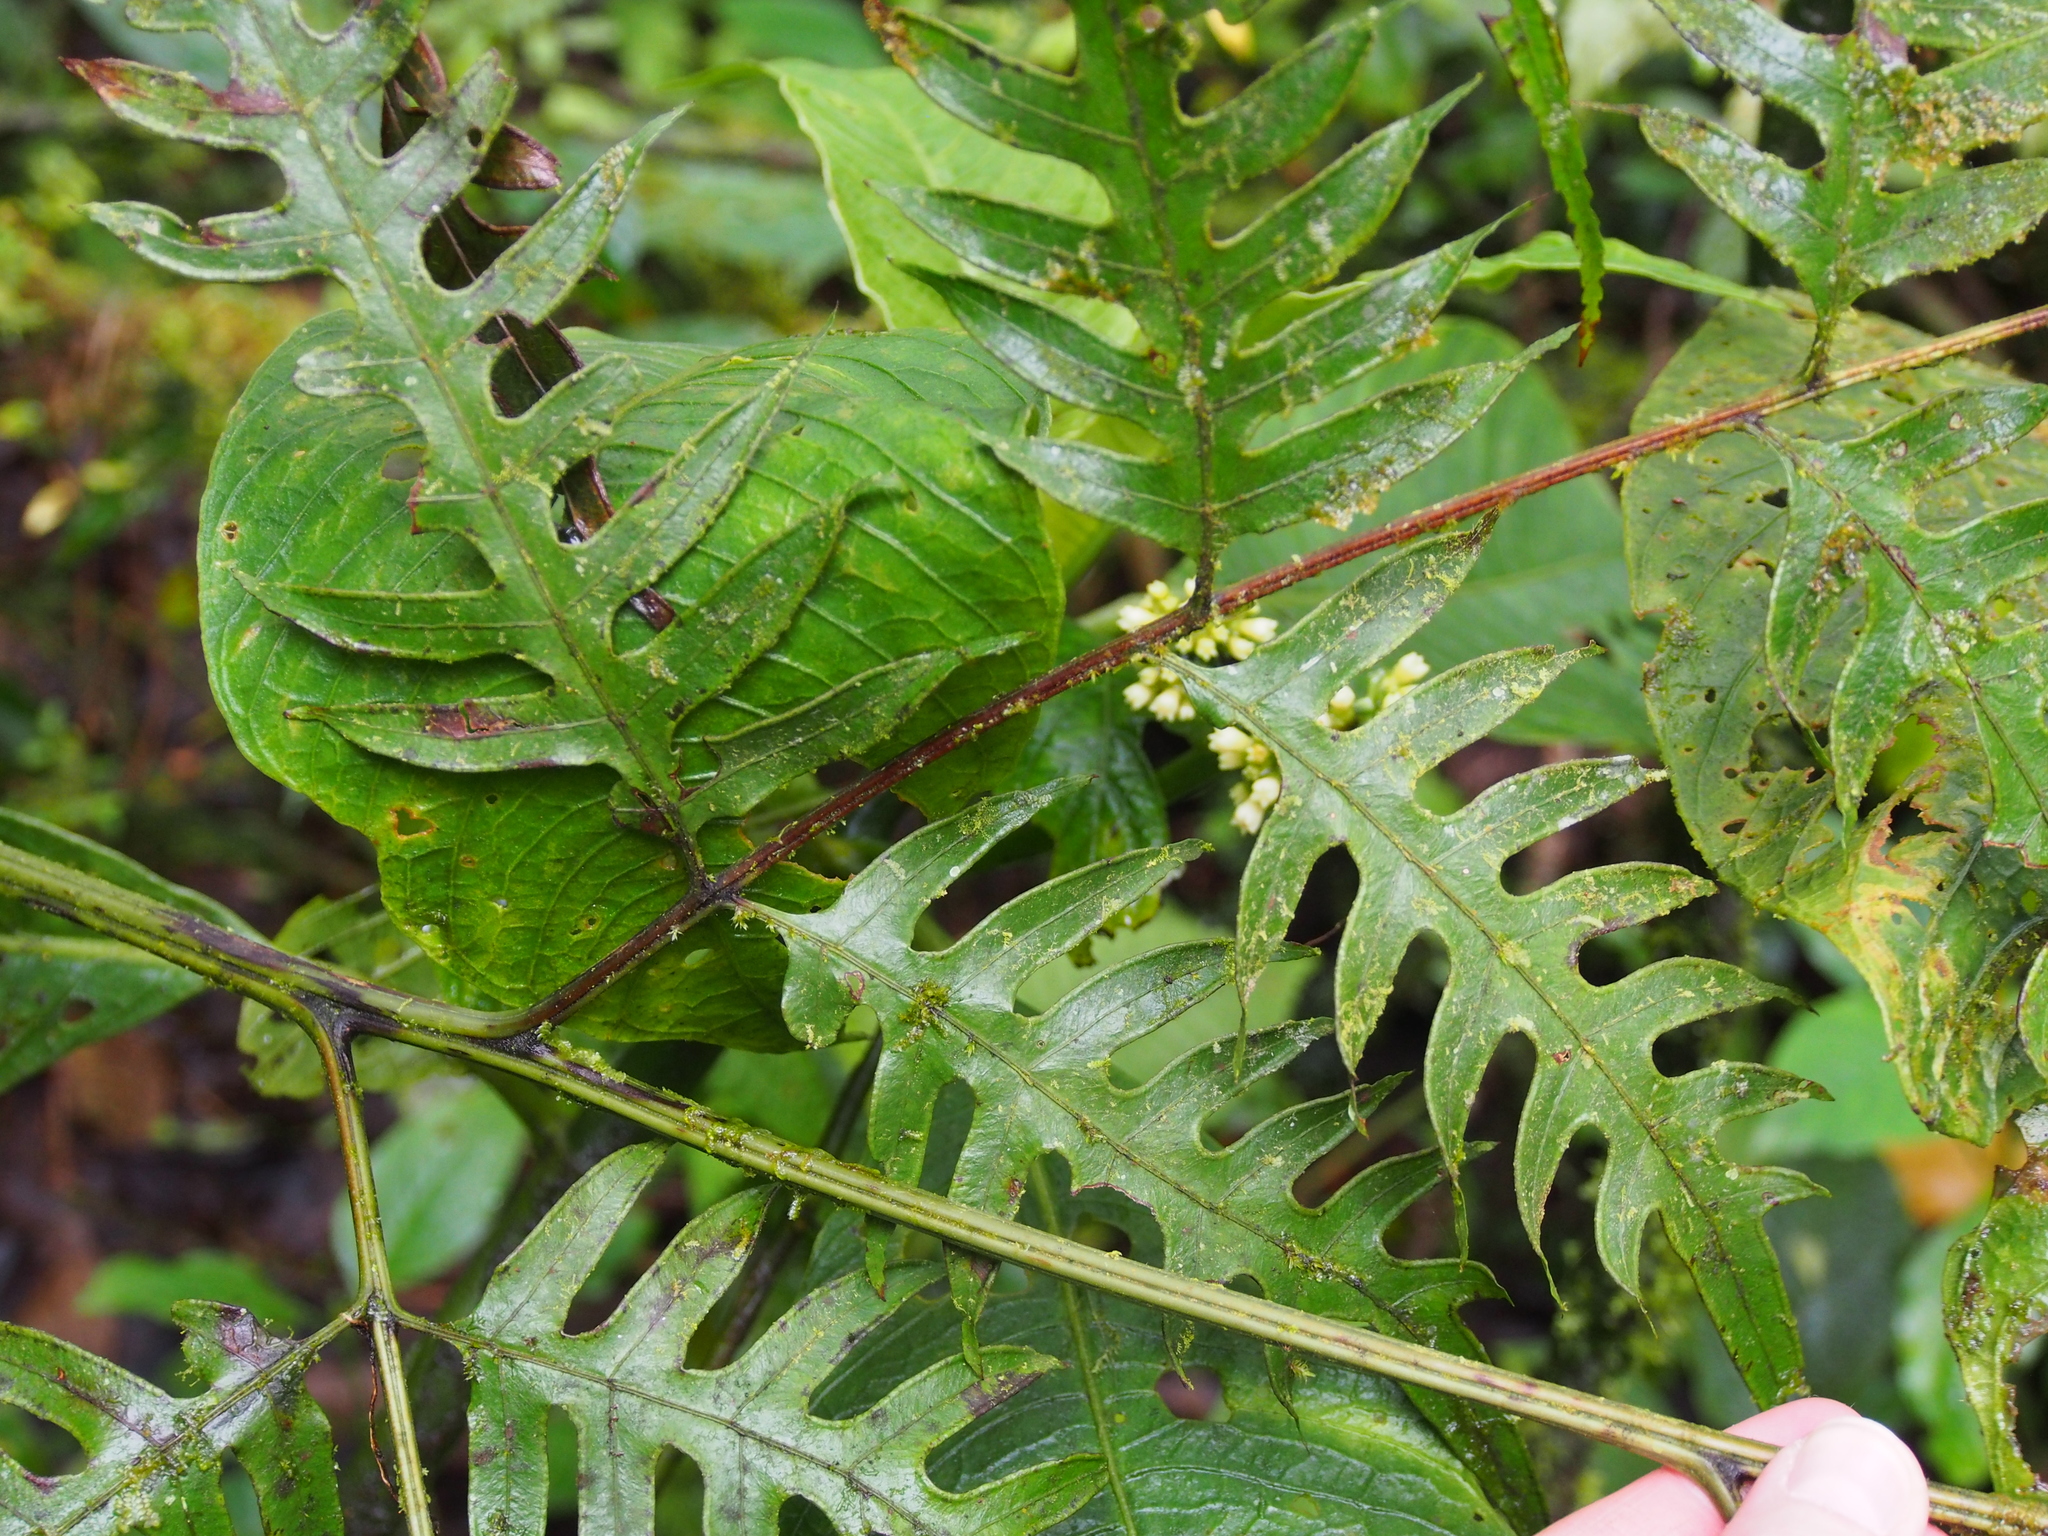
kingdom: Plantae
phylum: Tracheophyta
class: Polypodiopsida
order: Polypodiales
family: Pteridaceae
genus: Pteris
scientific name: Pteris altissima
